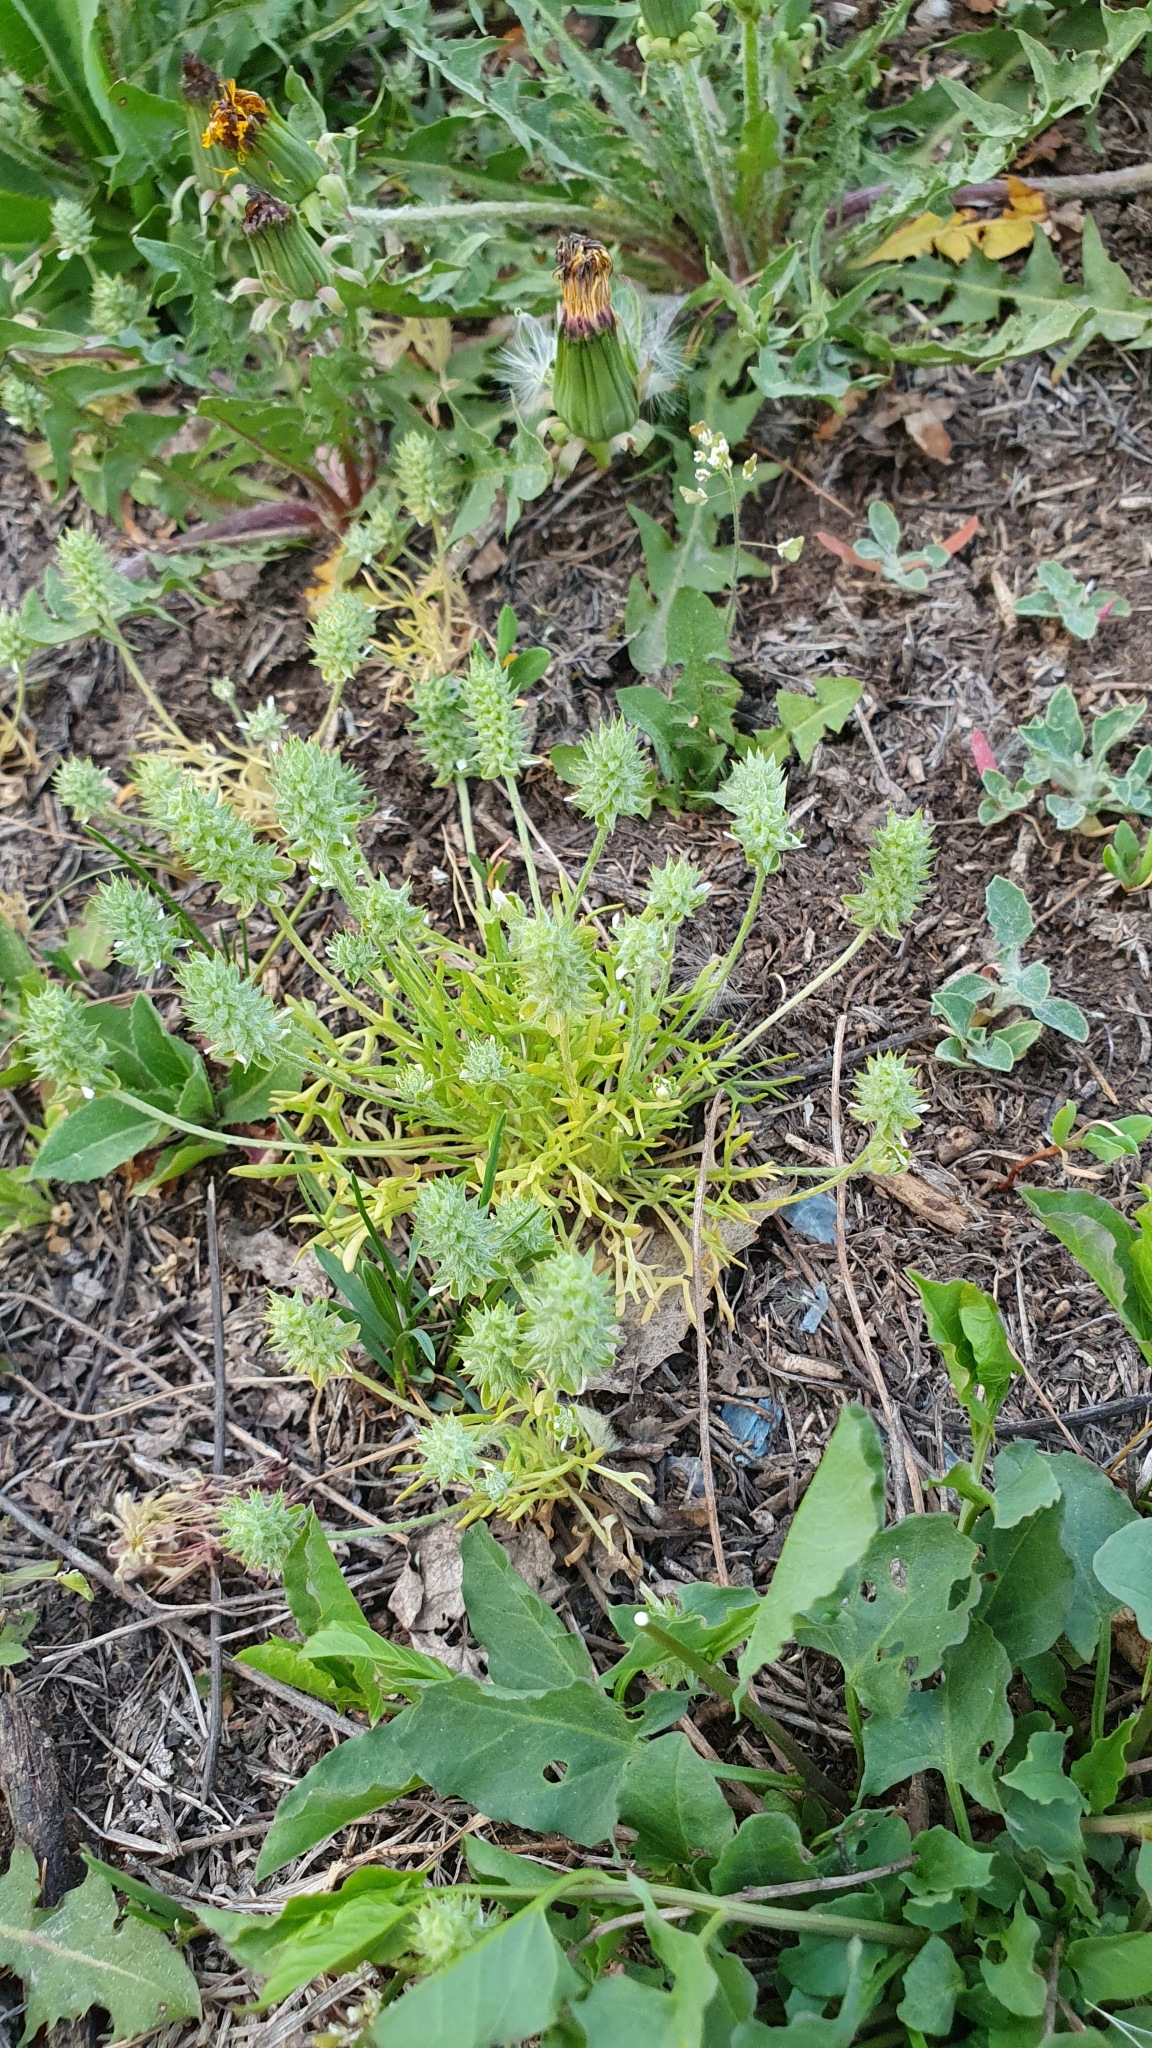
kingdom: Plantae
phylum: Tracheophyta
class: Magnoliopsida
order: Ranunculales
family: Ranunculaceae
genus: Ceratocephala
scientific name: Ceratocephala orthoceras
